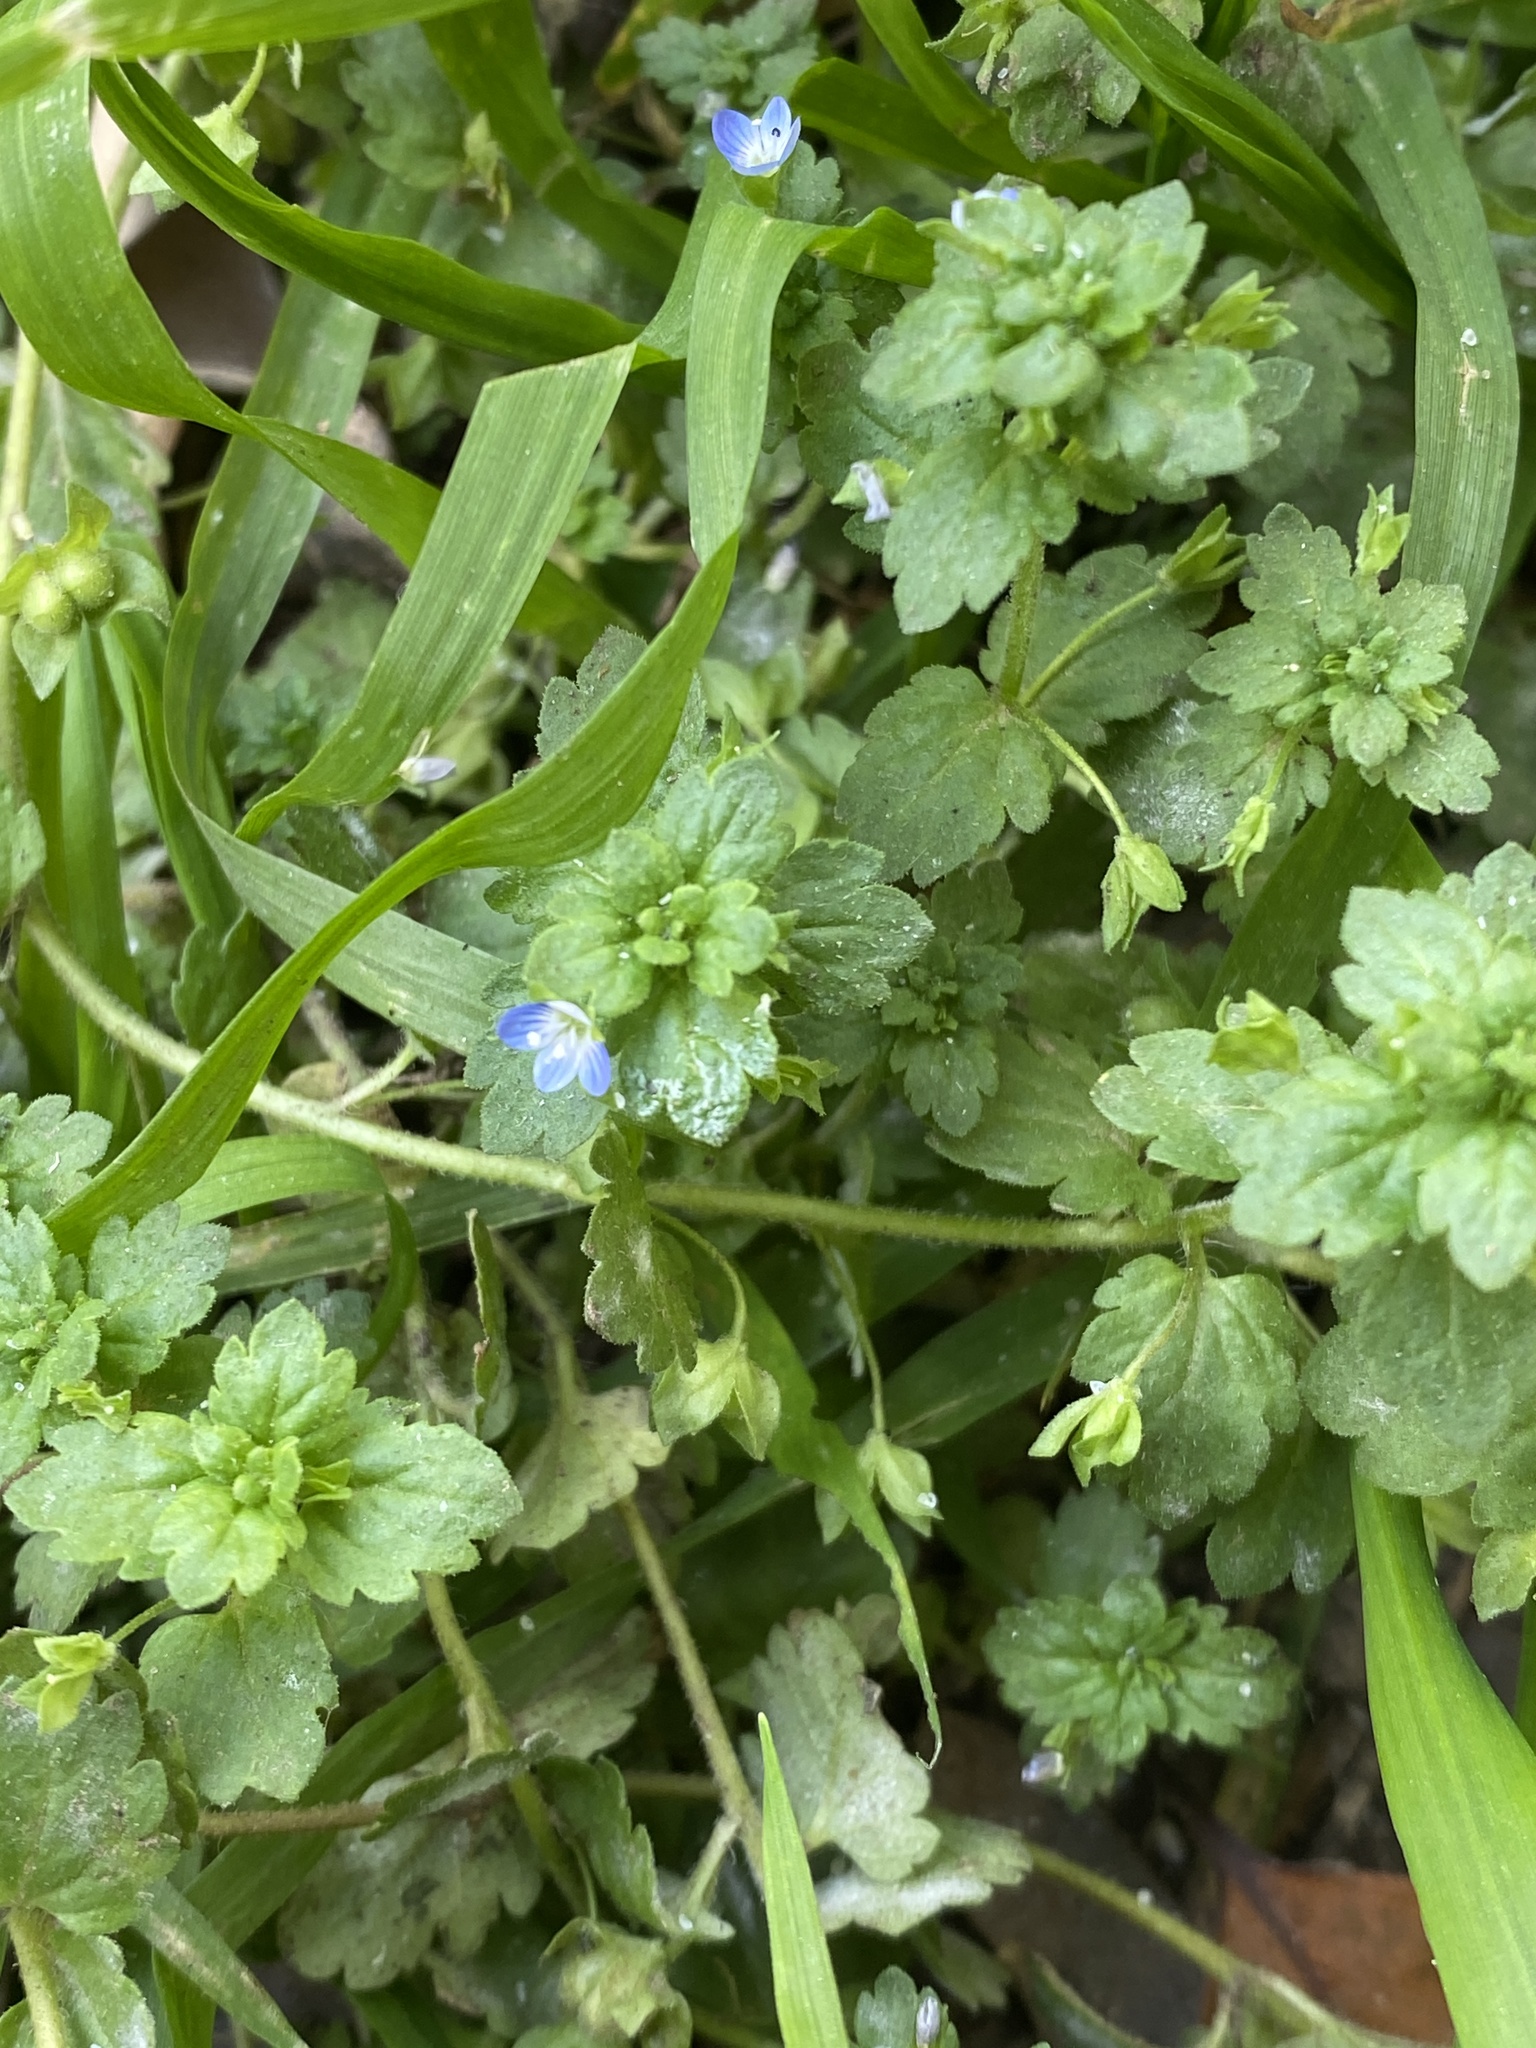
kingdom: Plantae
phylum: Tracheophyta
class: Magnoliopsida
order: Lamiales
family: Plantaginaceae
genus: Veronica
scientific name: Veronica persica
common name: Common field-speedwell
